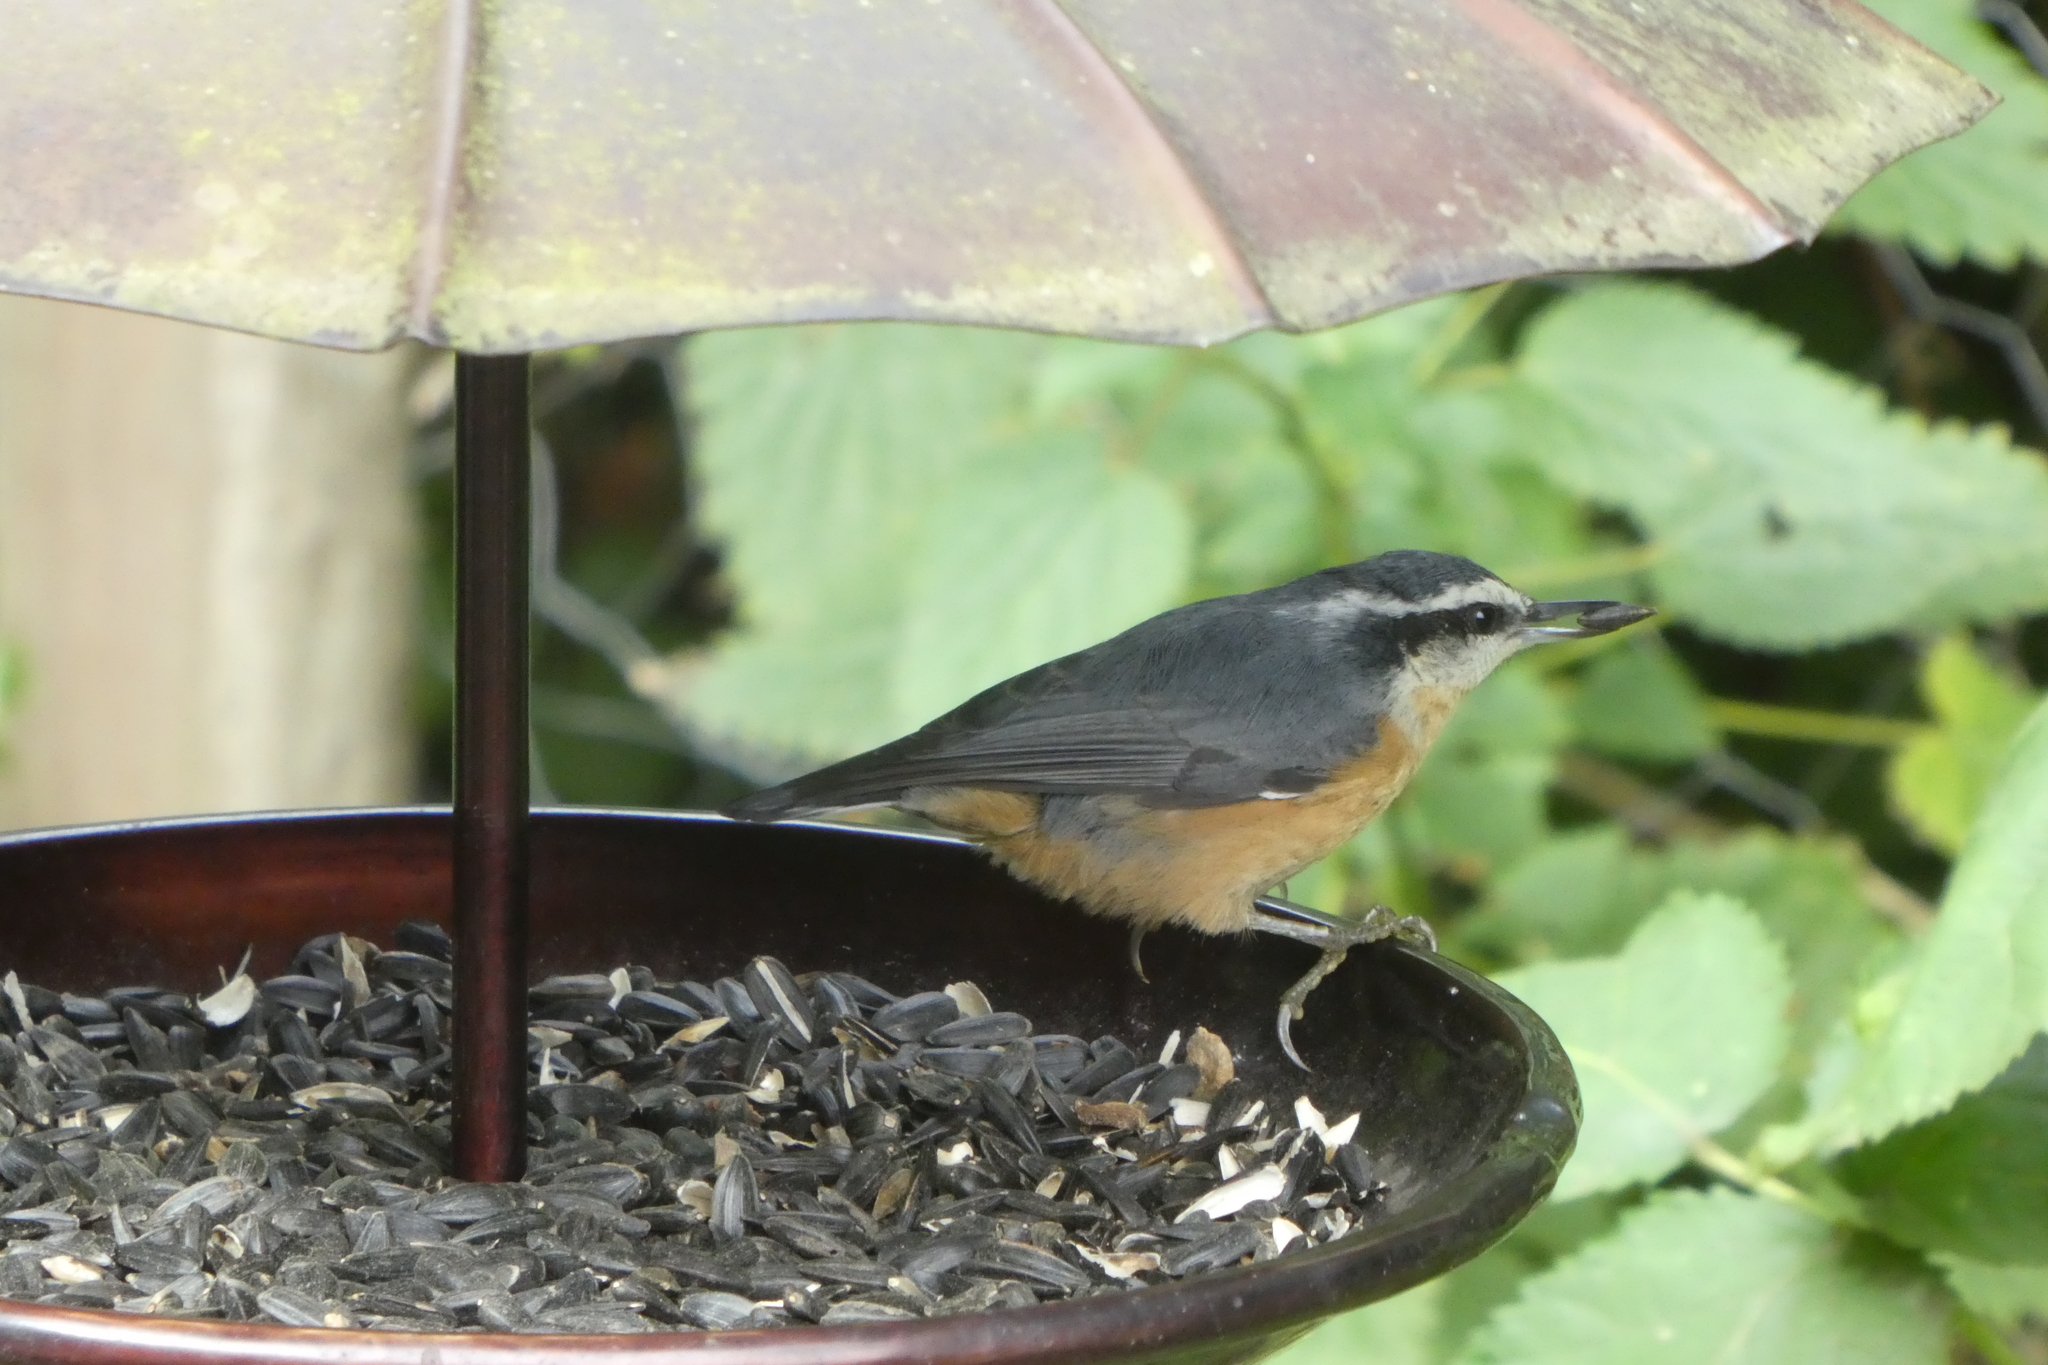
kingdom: Animalia
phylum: Chordata
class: Aves
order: Passeriformes
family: Sittidae
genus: Sitta
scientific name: Sitta canadensis
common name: Red-breasted nuthatch
